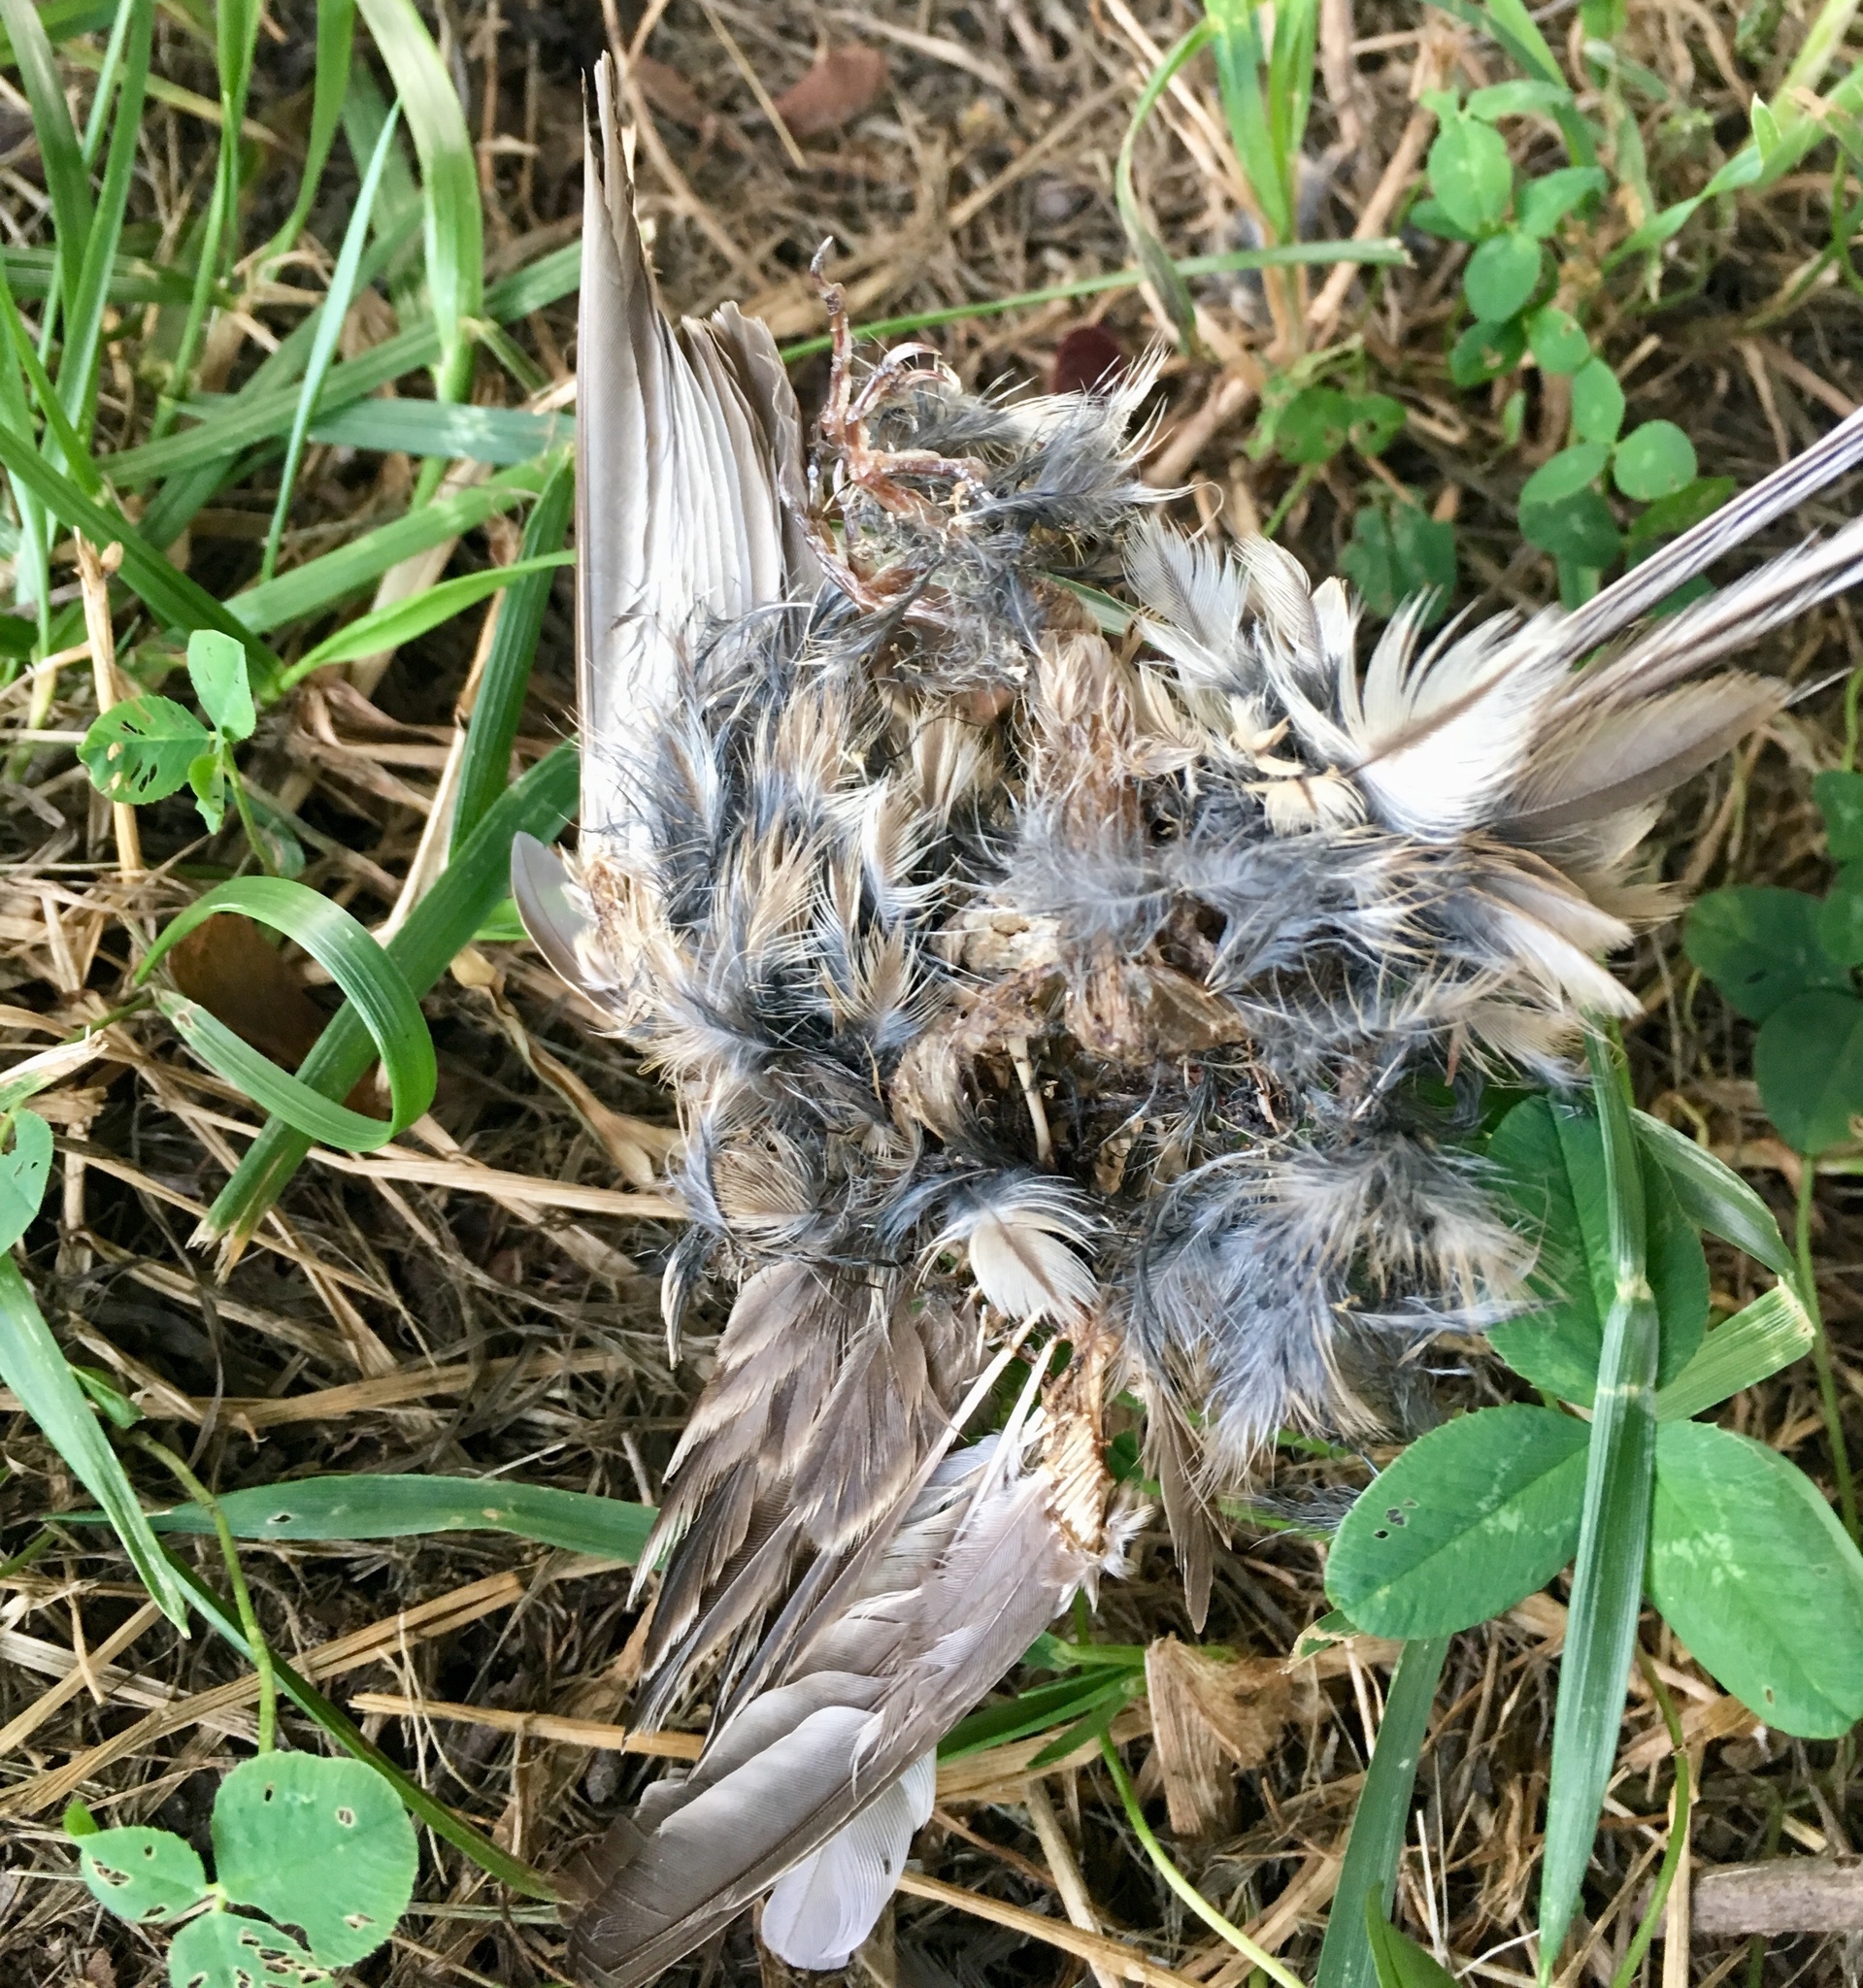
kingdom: Animalia
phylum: Chordata
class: Aves
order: Passeriformes
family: Fringillidae
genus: Haemorhous
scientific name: Haemorhous mexicanus
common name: House finch
